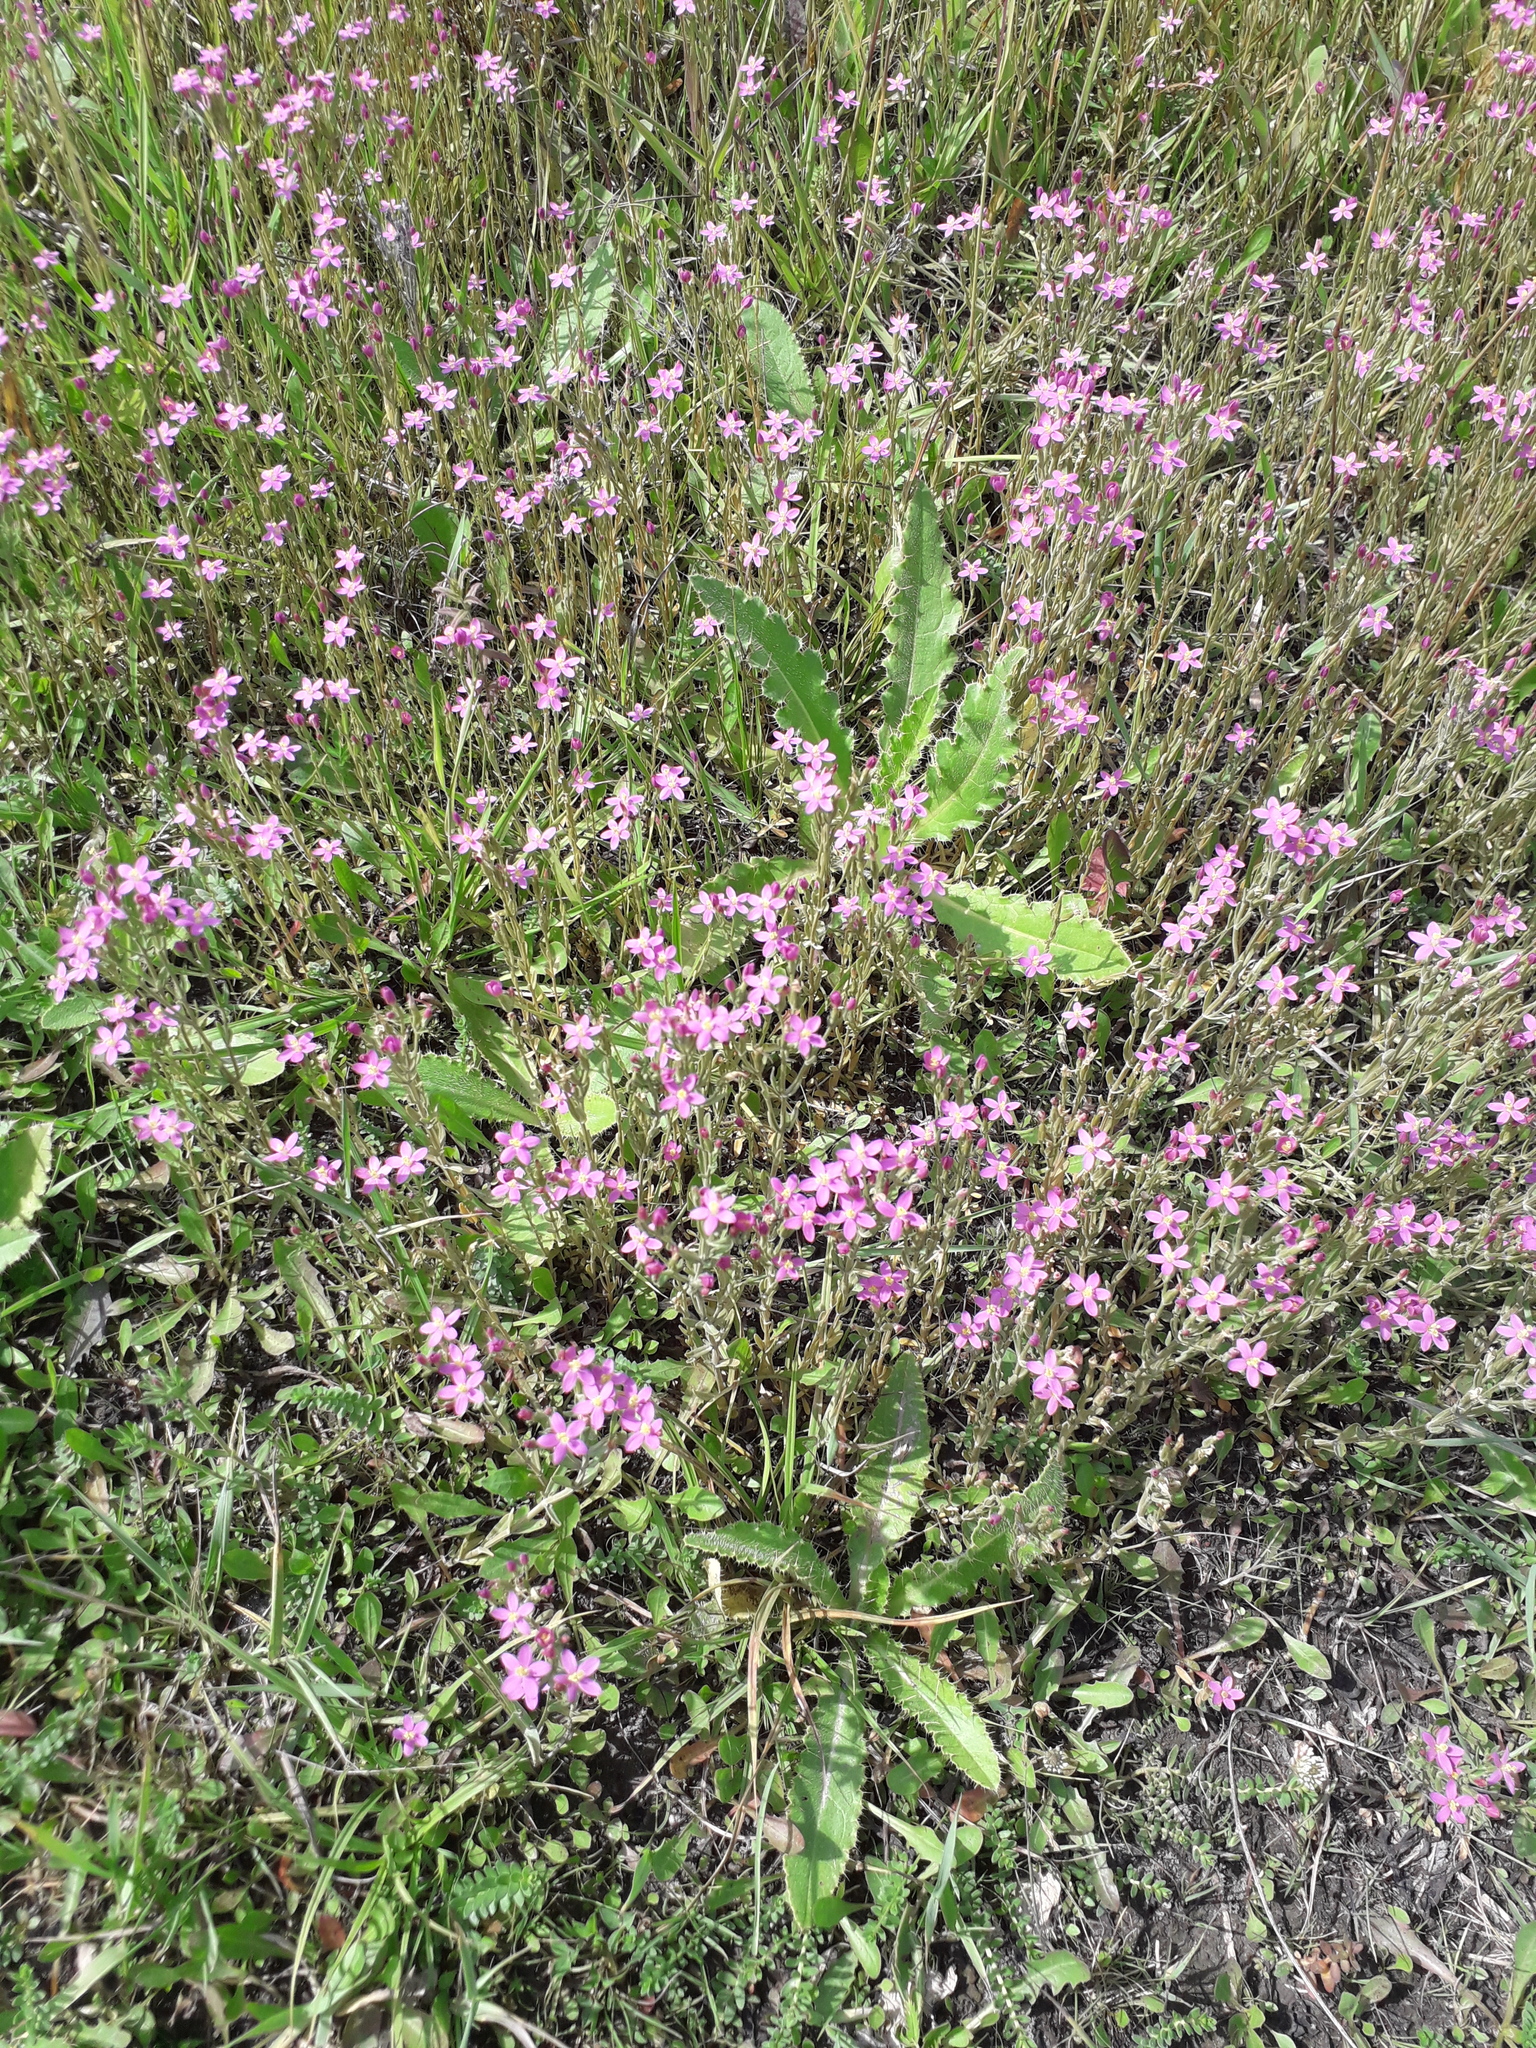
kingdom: Plantae
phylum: Tracheophyta
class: Magnoliopsida
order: Gentianales
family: Gentianaceae
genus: Centaurium
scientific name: Centaurium pulchellum
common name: Lesser centaury
